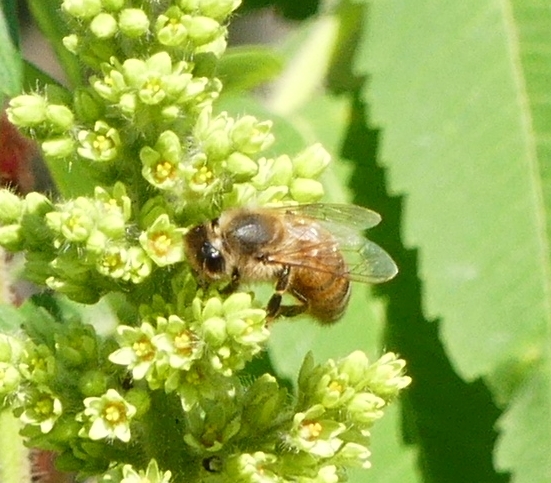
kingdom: Animalia
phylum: Arthropoda
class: Insecta
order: Hymenoptera
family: Apidae
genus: Apis
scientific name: Apis mellifera
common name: Honey bee
